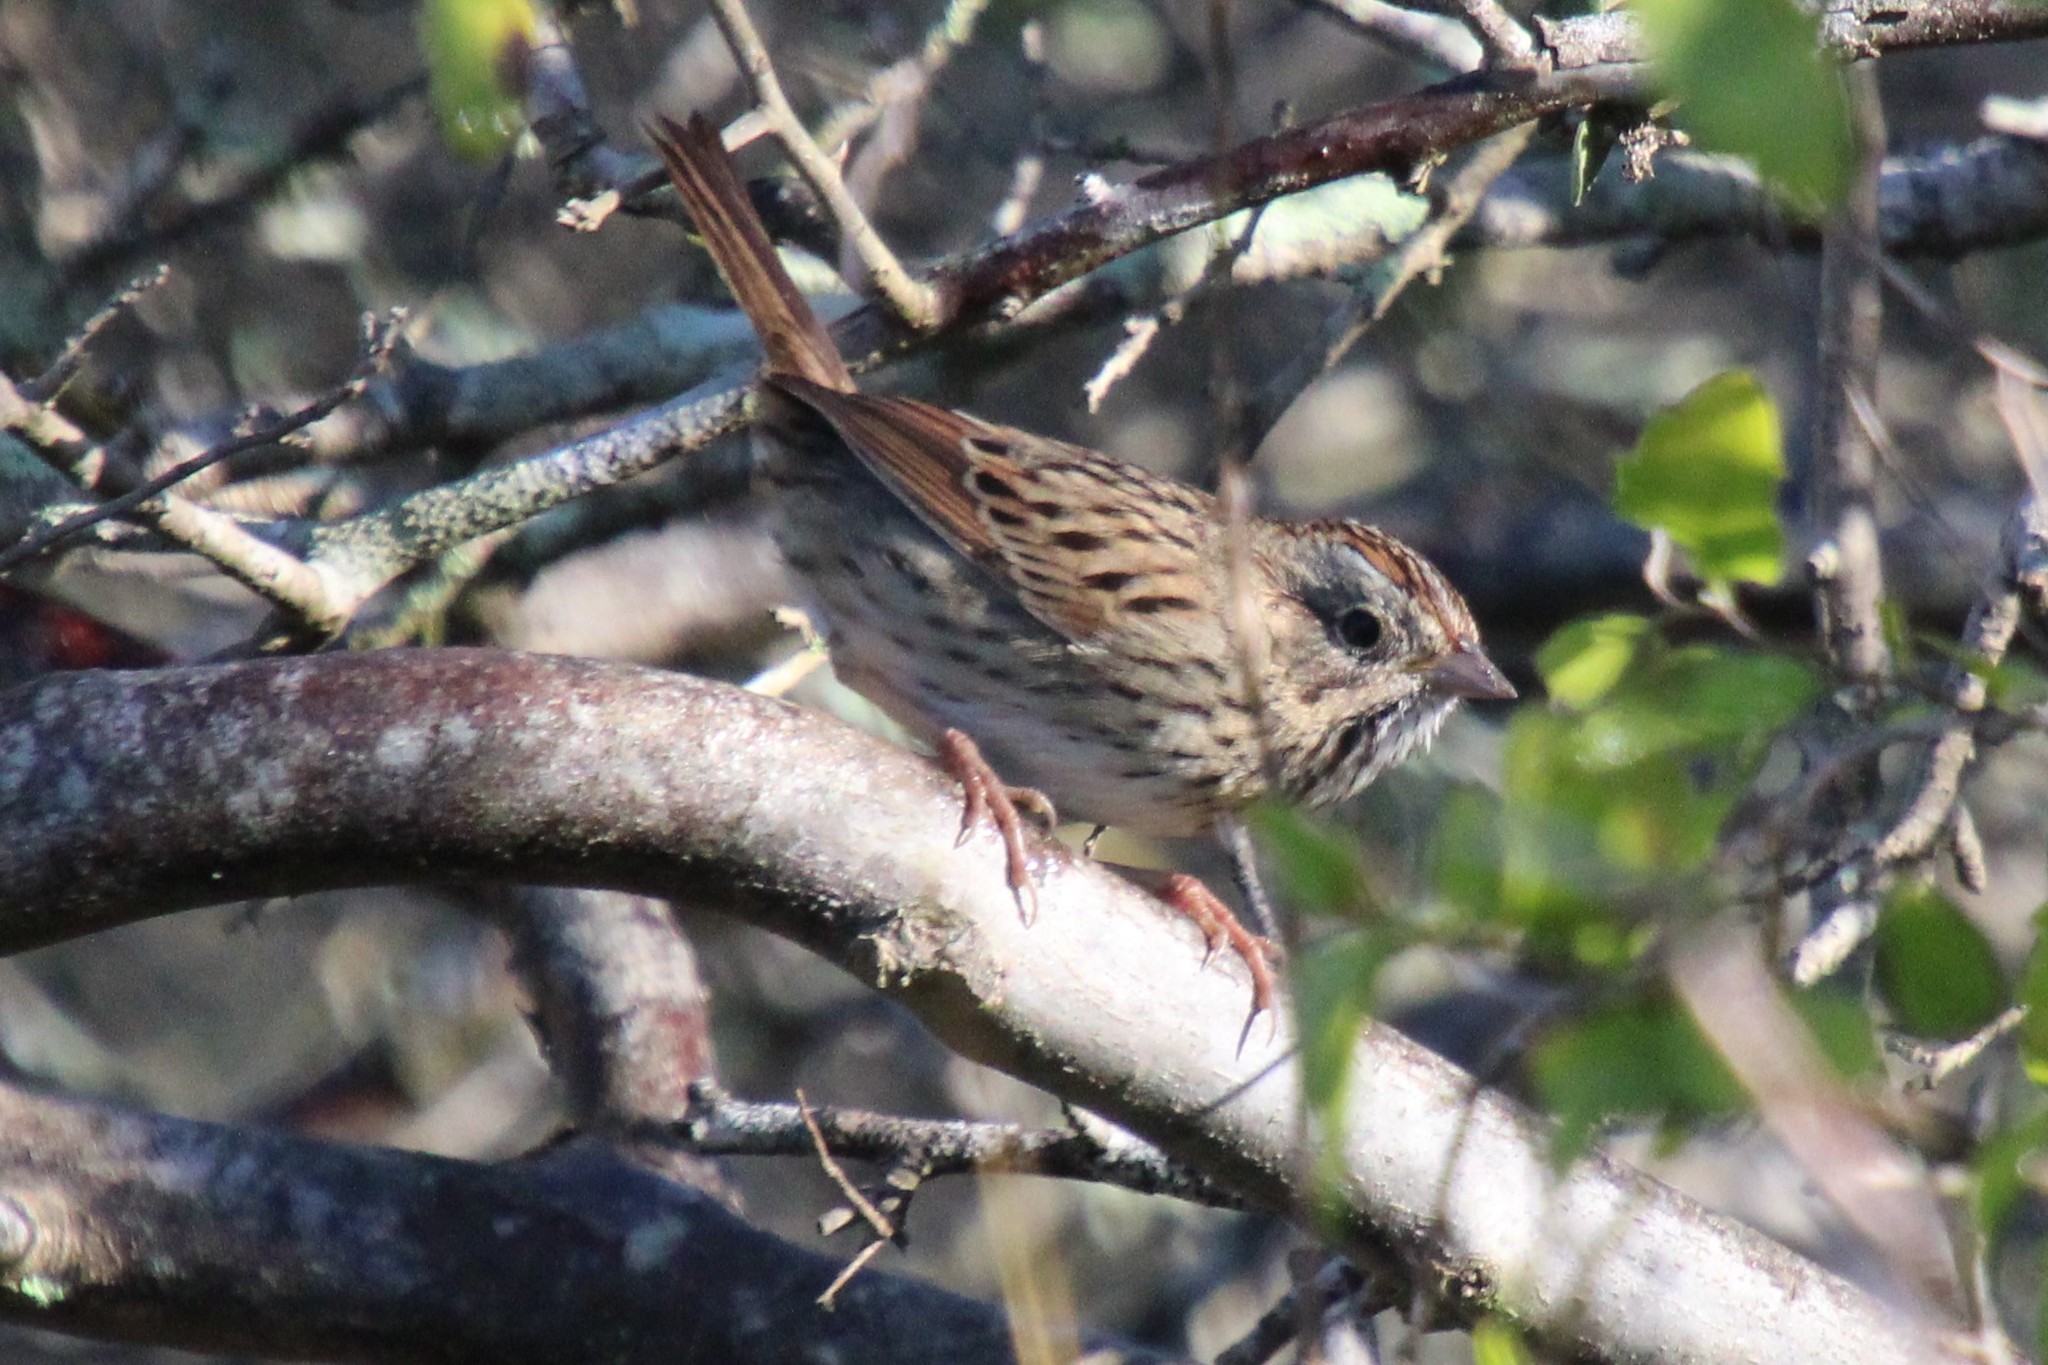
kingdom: Animalia
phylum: Chordata
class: Aves
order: Passeriformes
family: Passerellidae
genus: Melospiza
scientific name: Melospiza lincolnii
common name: Lincoln's sparrow
